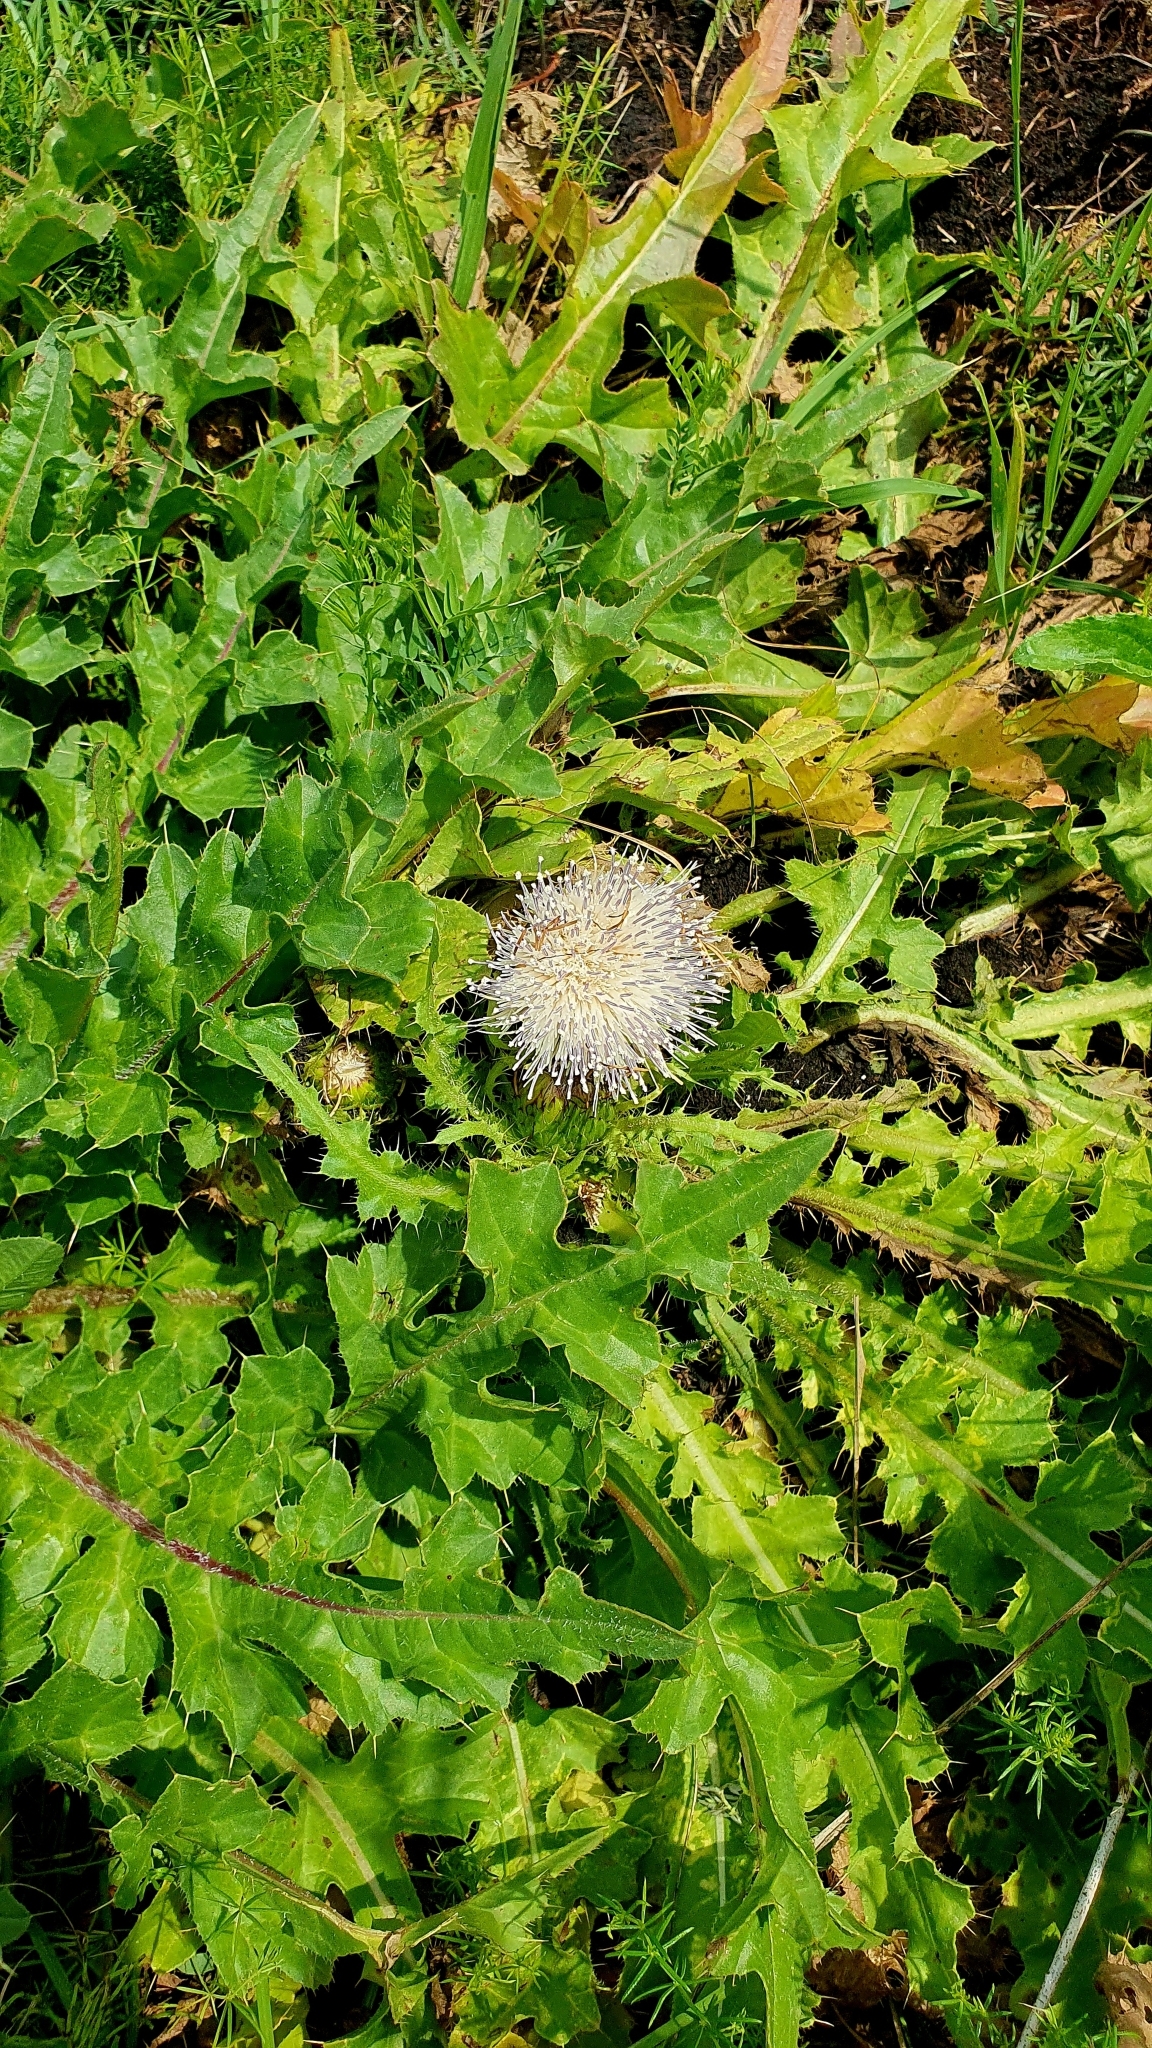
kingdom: Plantae
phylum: Tracheophyta
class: Magnoliopsida
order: Asterales
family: Asteraceae
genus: Cirsium
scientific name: Cirsium esculentum
